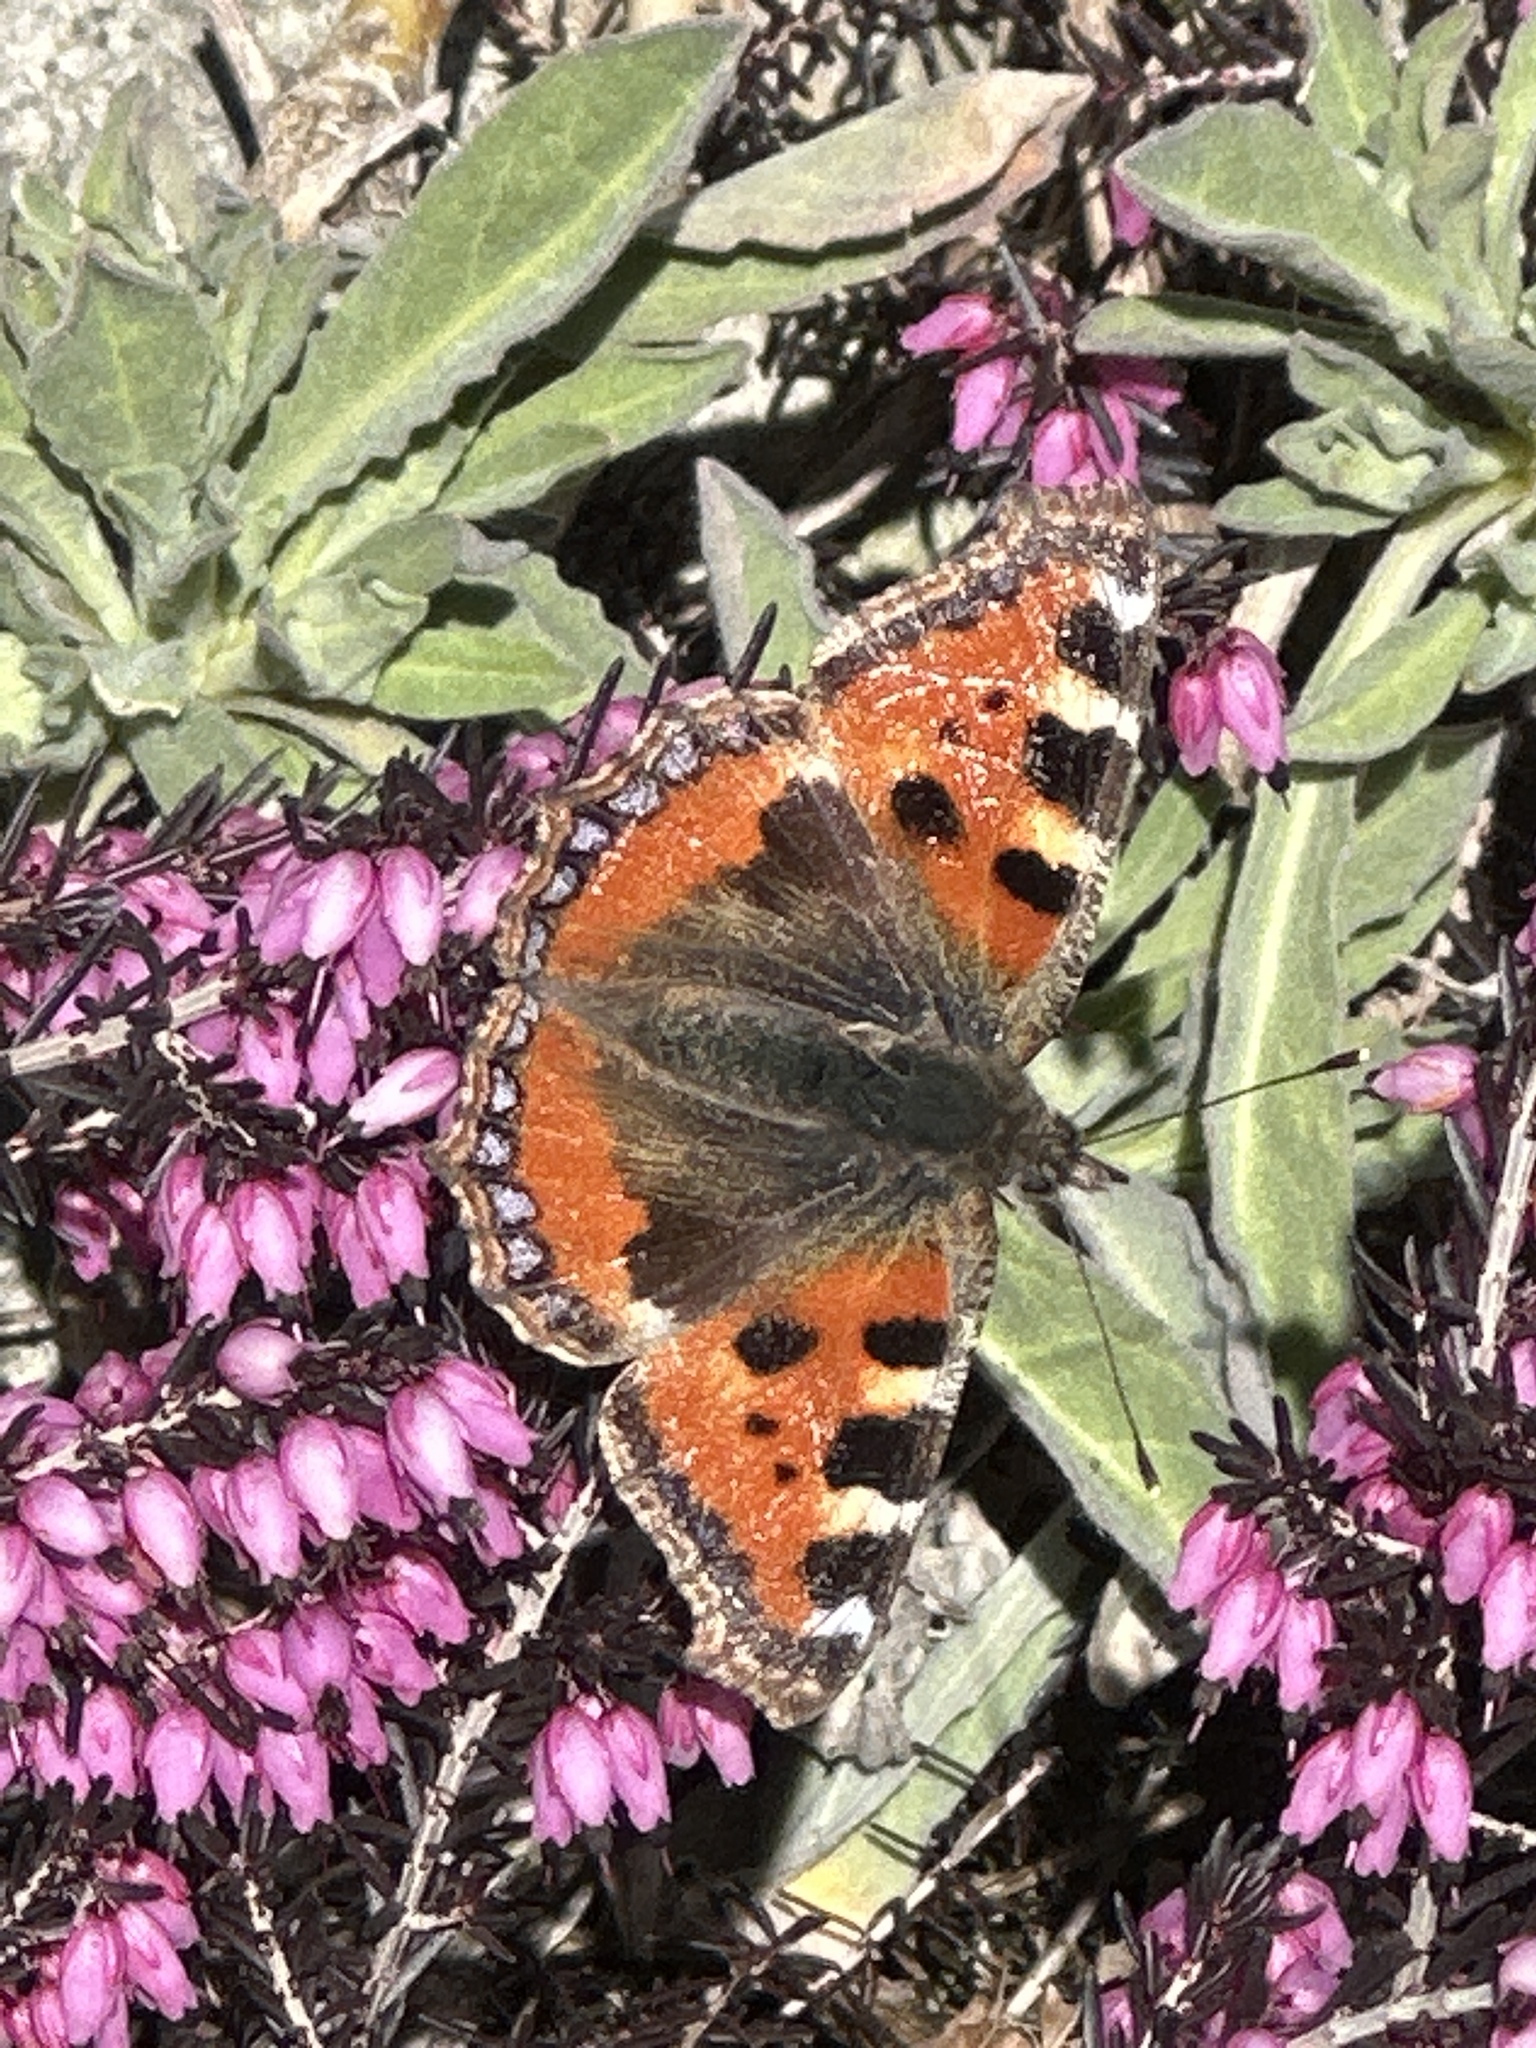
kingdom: Animalia
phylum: Arthropoda
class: Insecta
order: Lepidoptera
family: Nymphalidae
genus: Aglais
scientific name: Aglais urticae
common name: Small tortoiseshell
